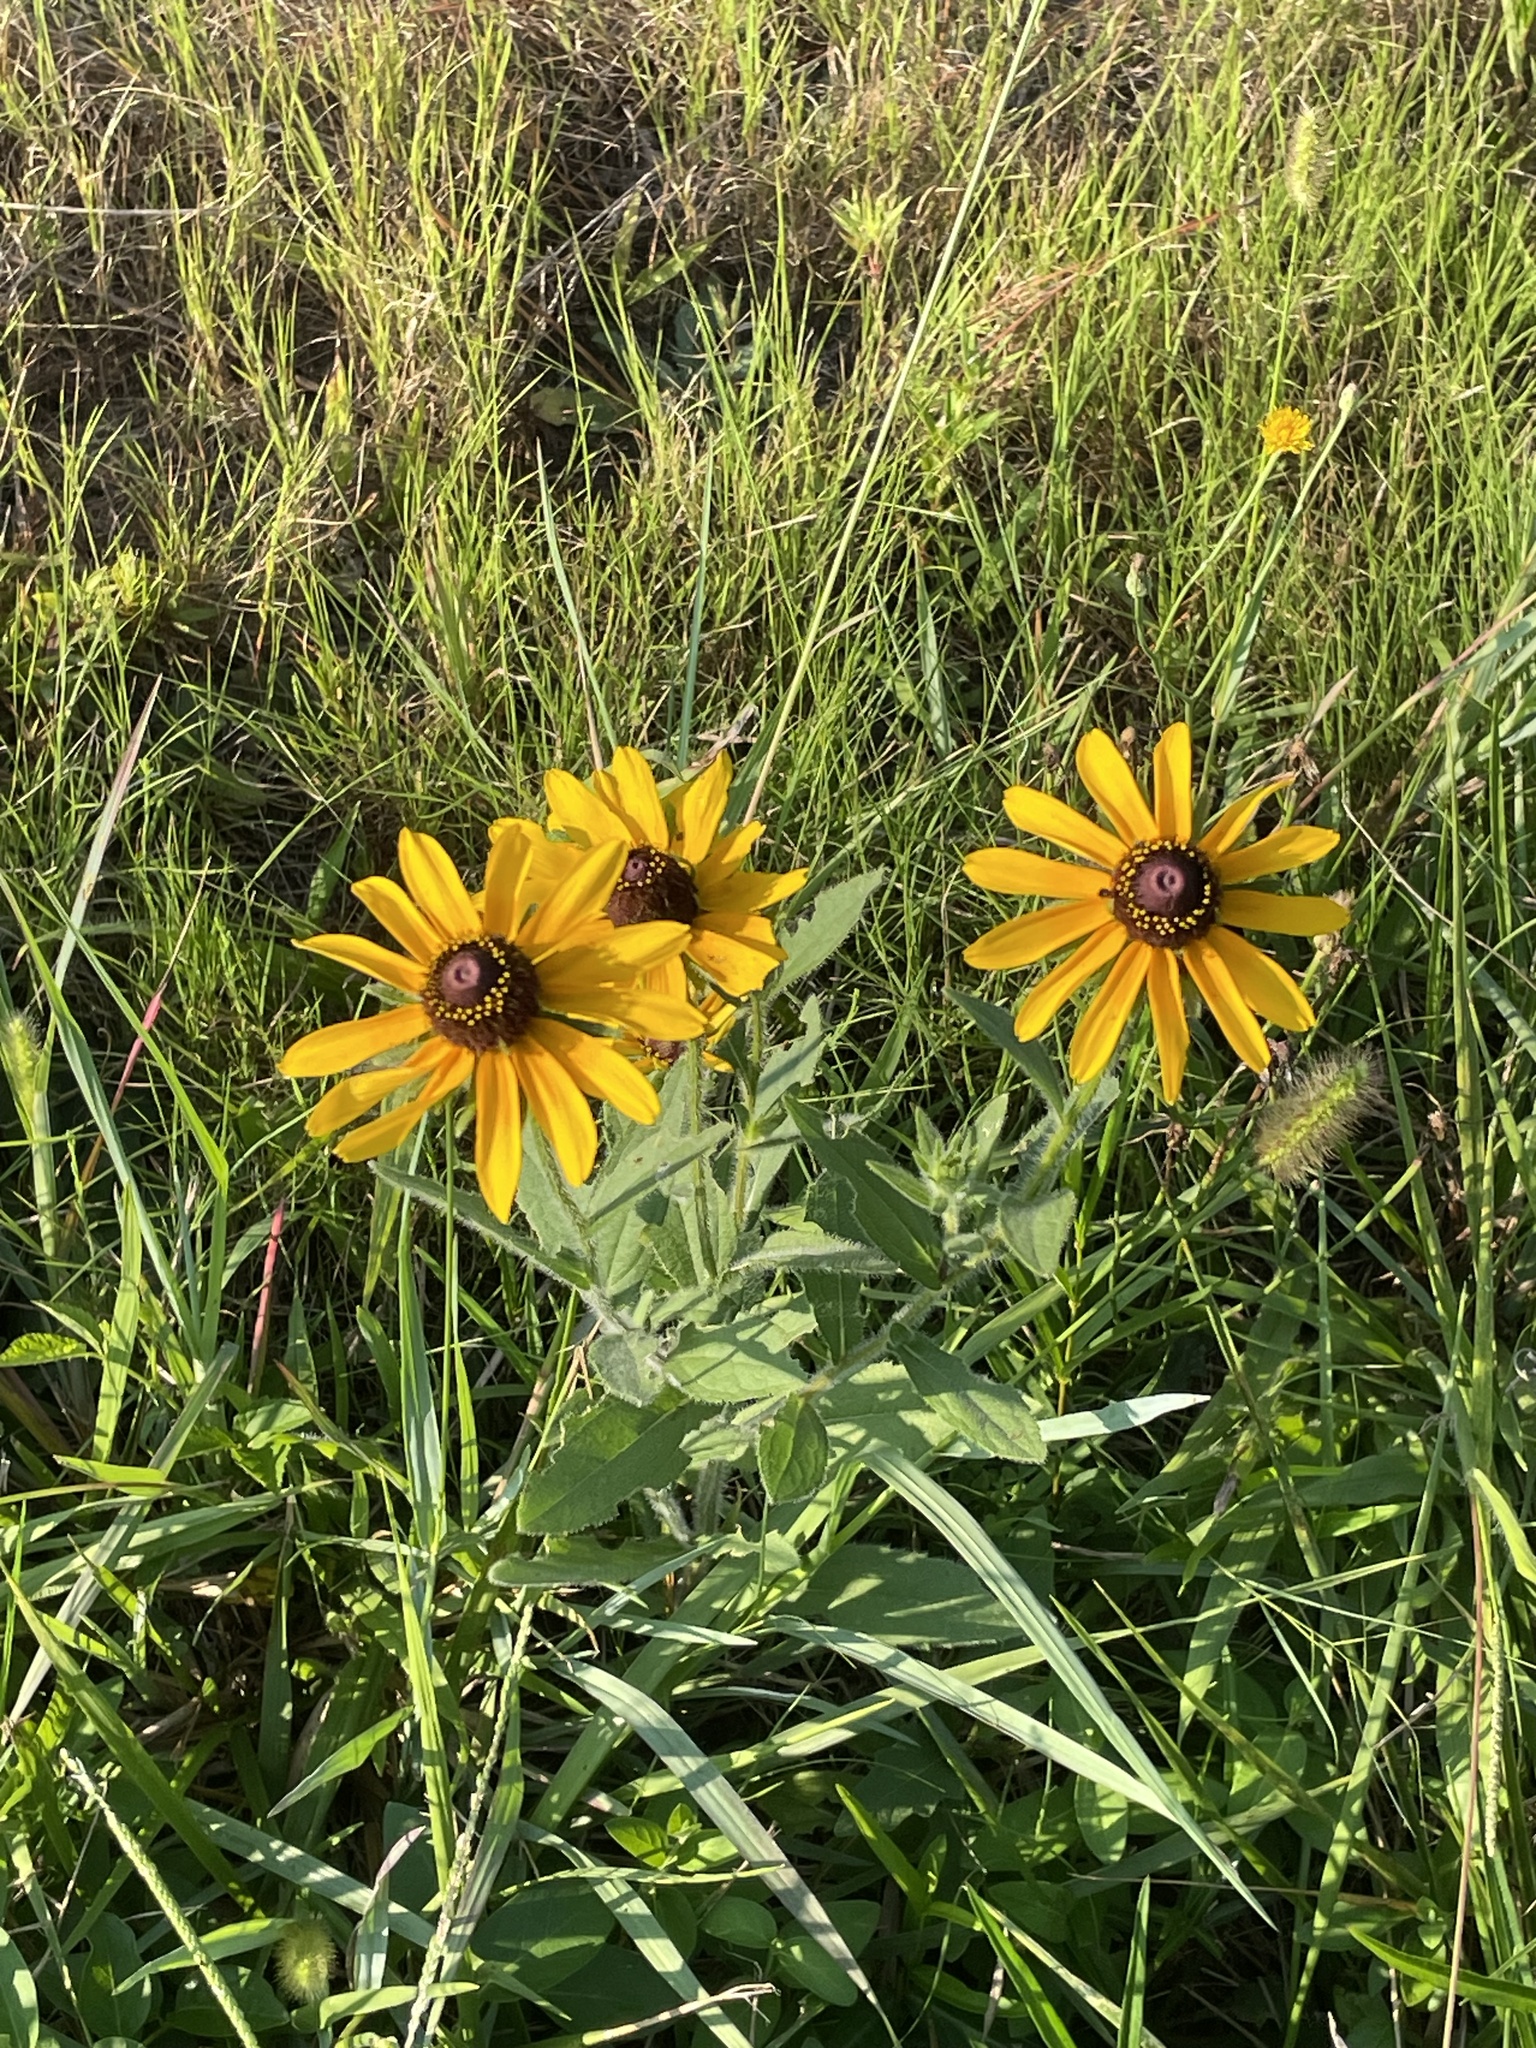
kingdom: Plantae
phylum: Tracheophyta
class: Magnoliopsida
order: Asterales
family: Asteraceae
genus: Rudbeckia
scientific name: Rudbeckia hirta
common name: Black-eyed-susan
